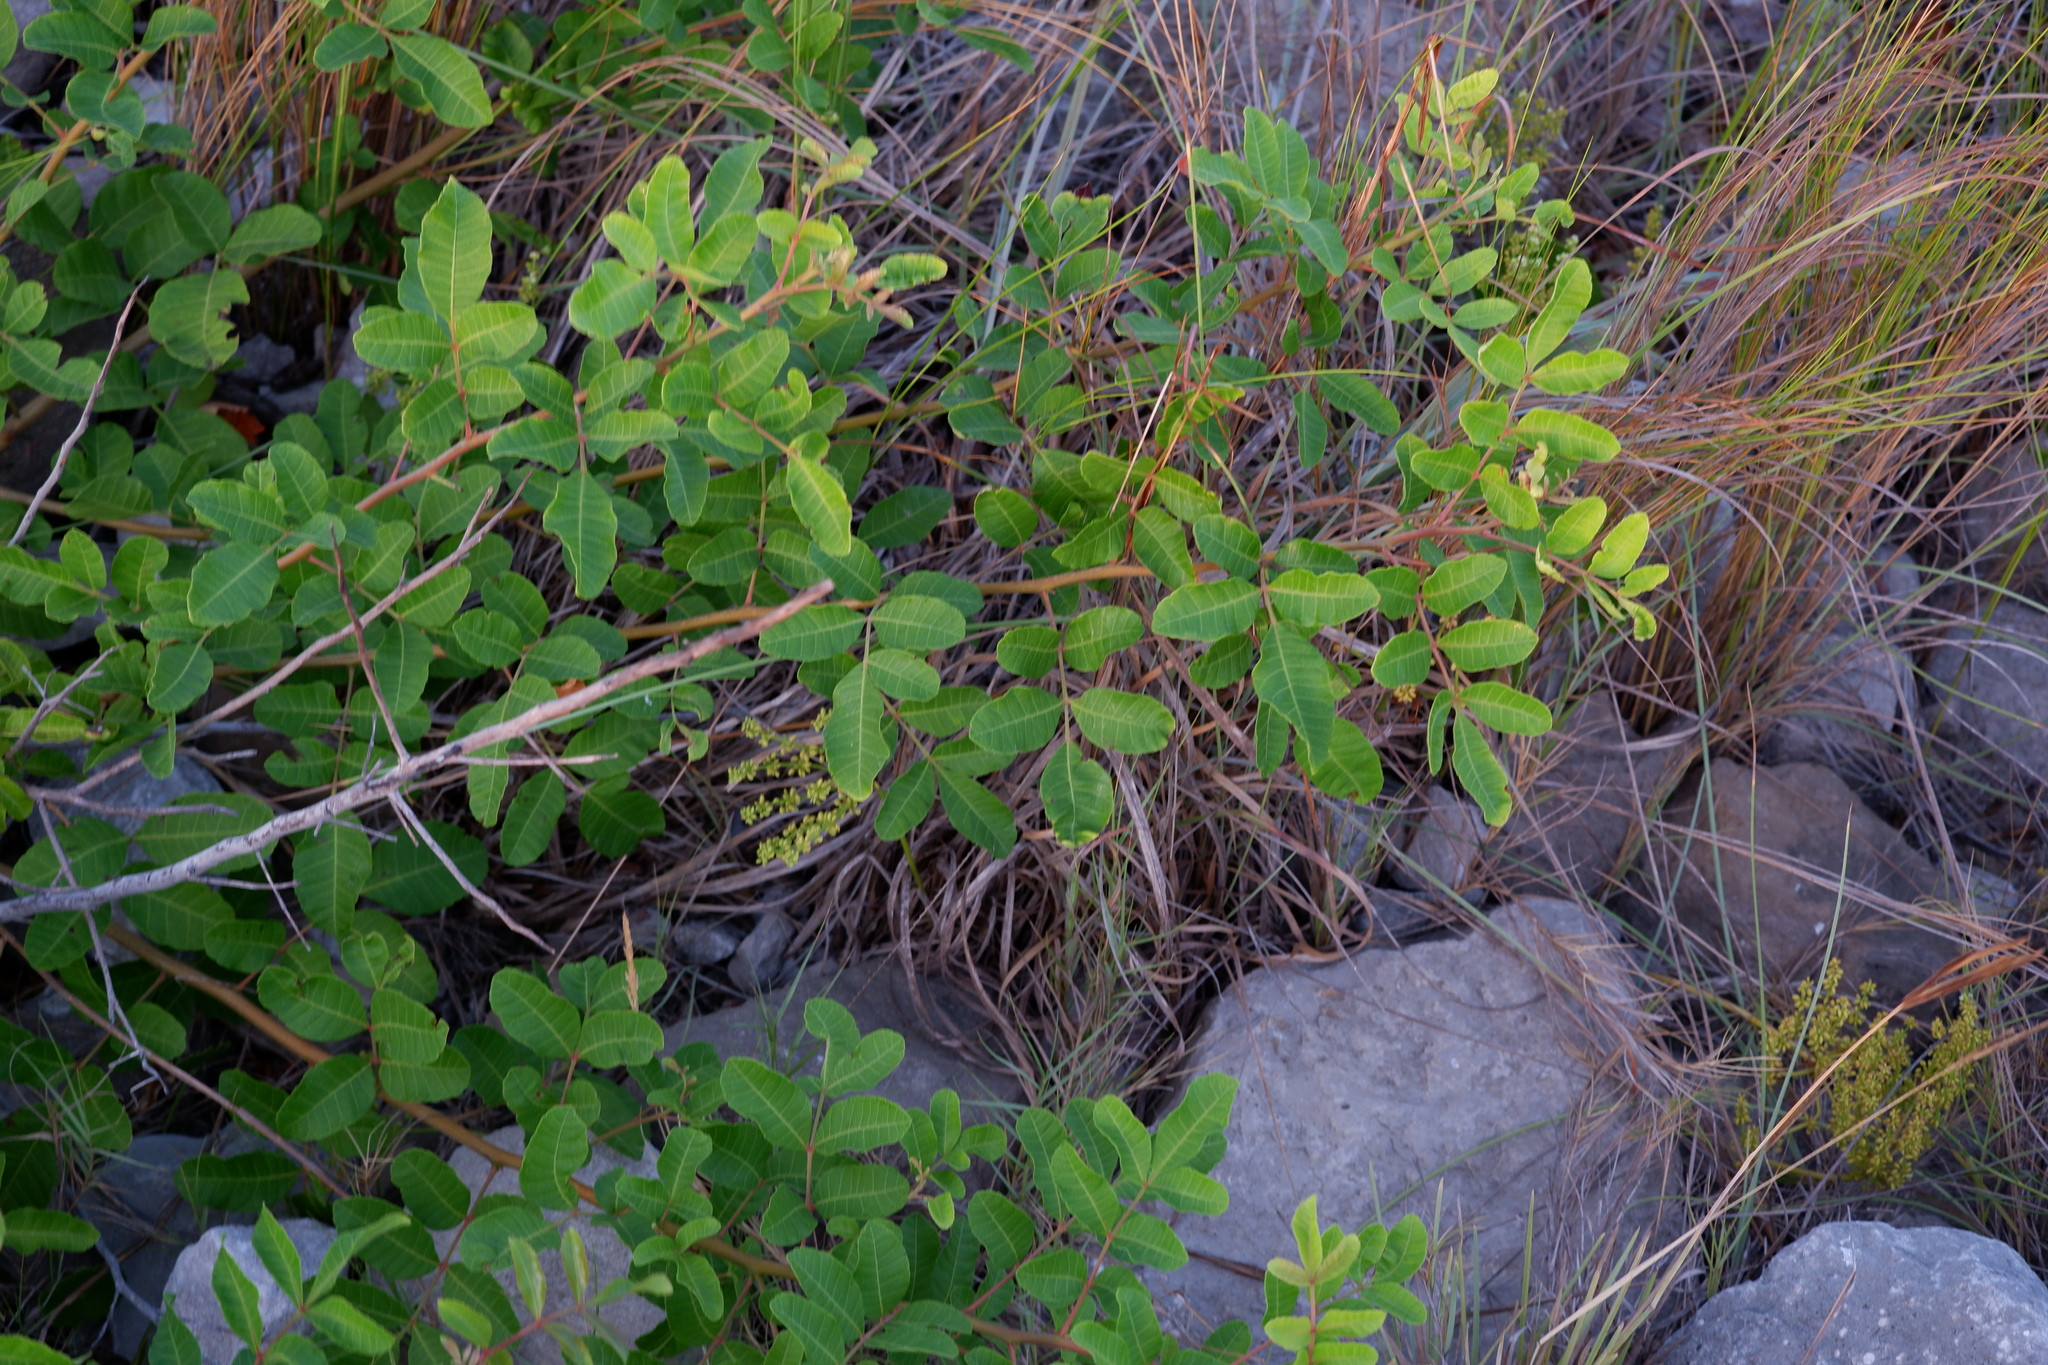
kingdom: Plantae
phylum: Tracheophyta
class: Magnoliopsida
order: Sapindales
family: Anacardiaceae
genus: Schinus
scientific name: Schinus terebinthifolia
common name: Brazilian peppertree
